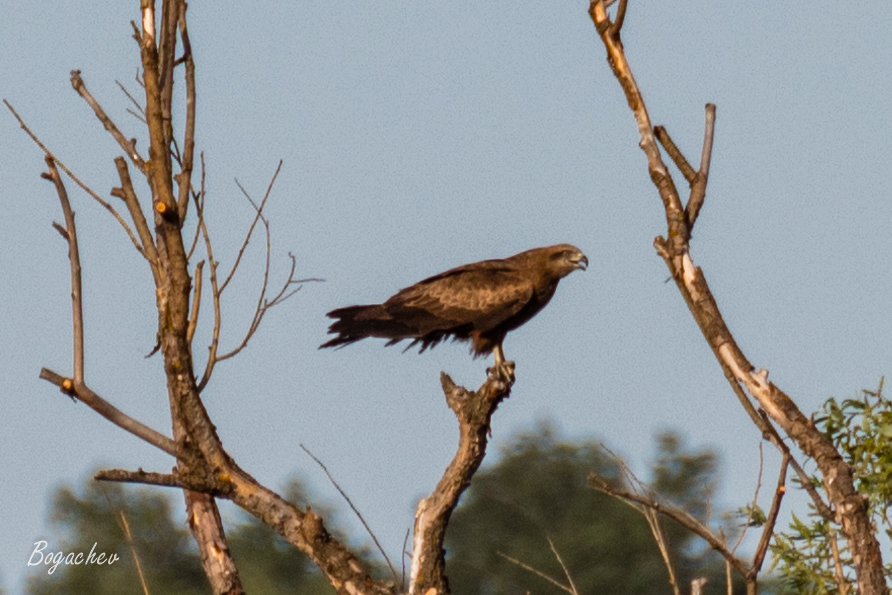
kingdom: Animalia
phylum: Chordata
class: Aves
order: Accipitriformes
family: Accipitridae
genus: Milvus
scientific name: Milvus migrans
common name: Black kite
